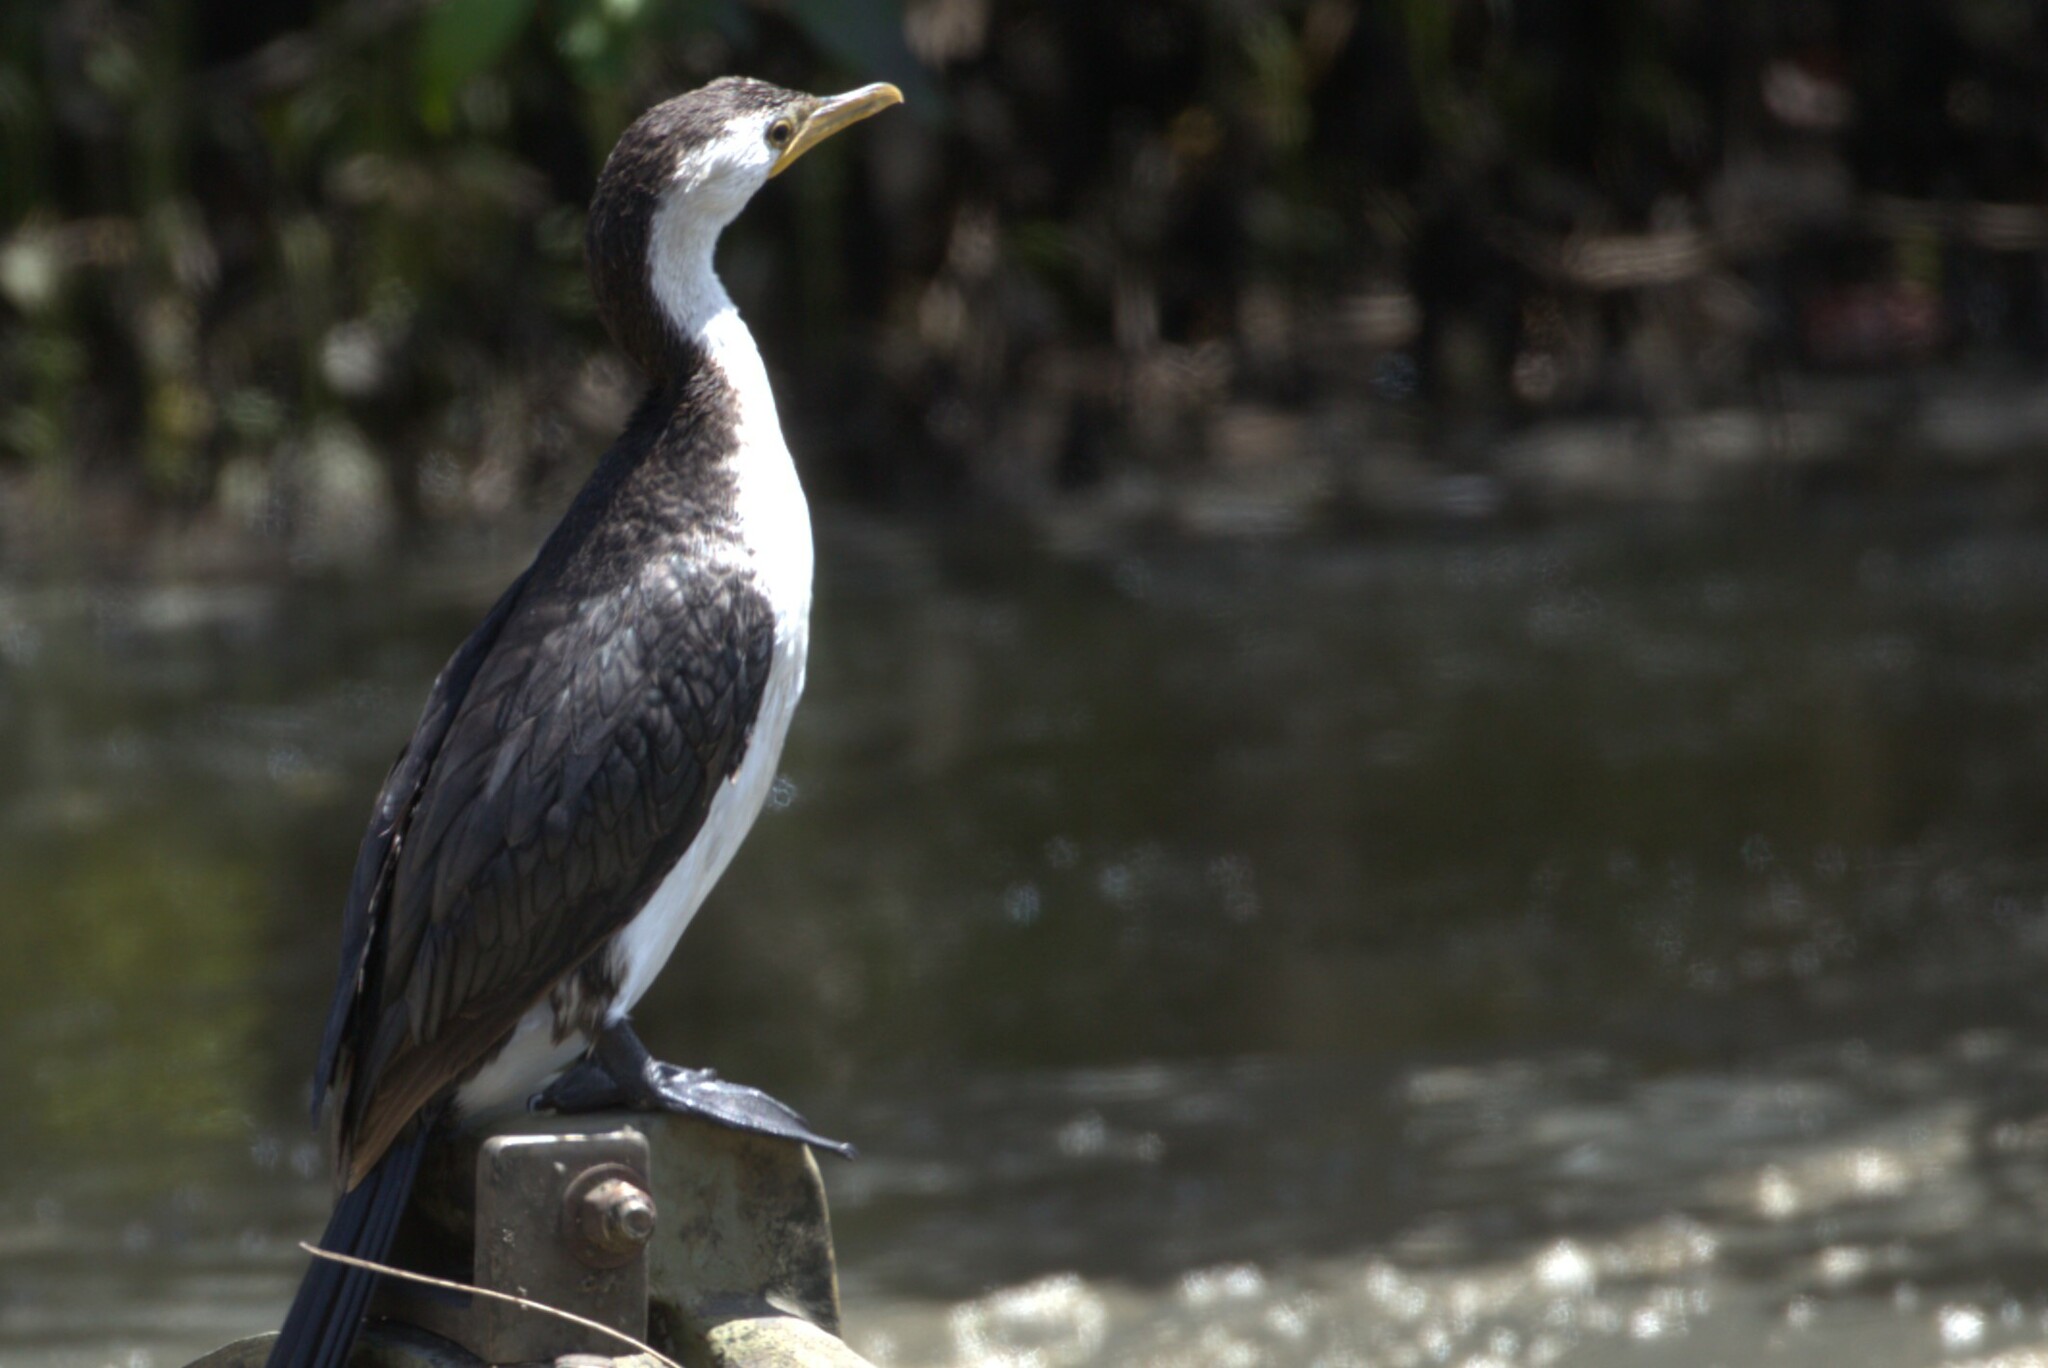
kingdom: Animalia
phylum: Chordata
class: Aves
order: Suliformes
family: Phalacrocoracidae
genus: Microcarbo
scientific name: Microcarbo melanoleucos
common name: Little pied cormorant
